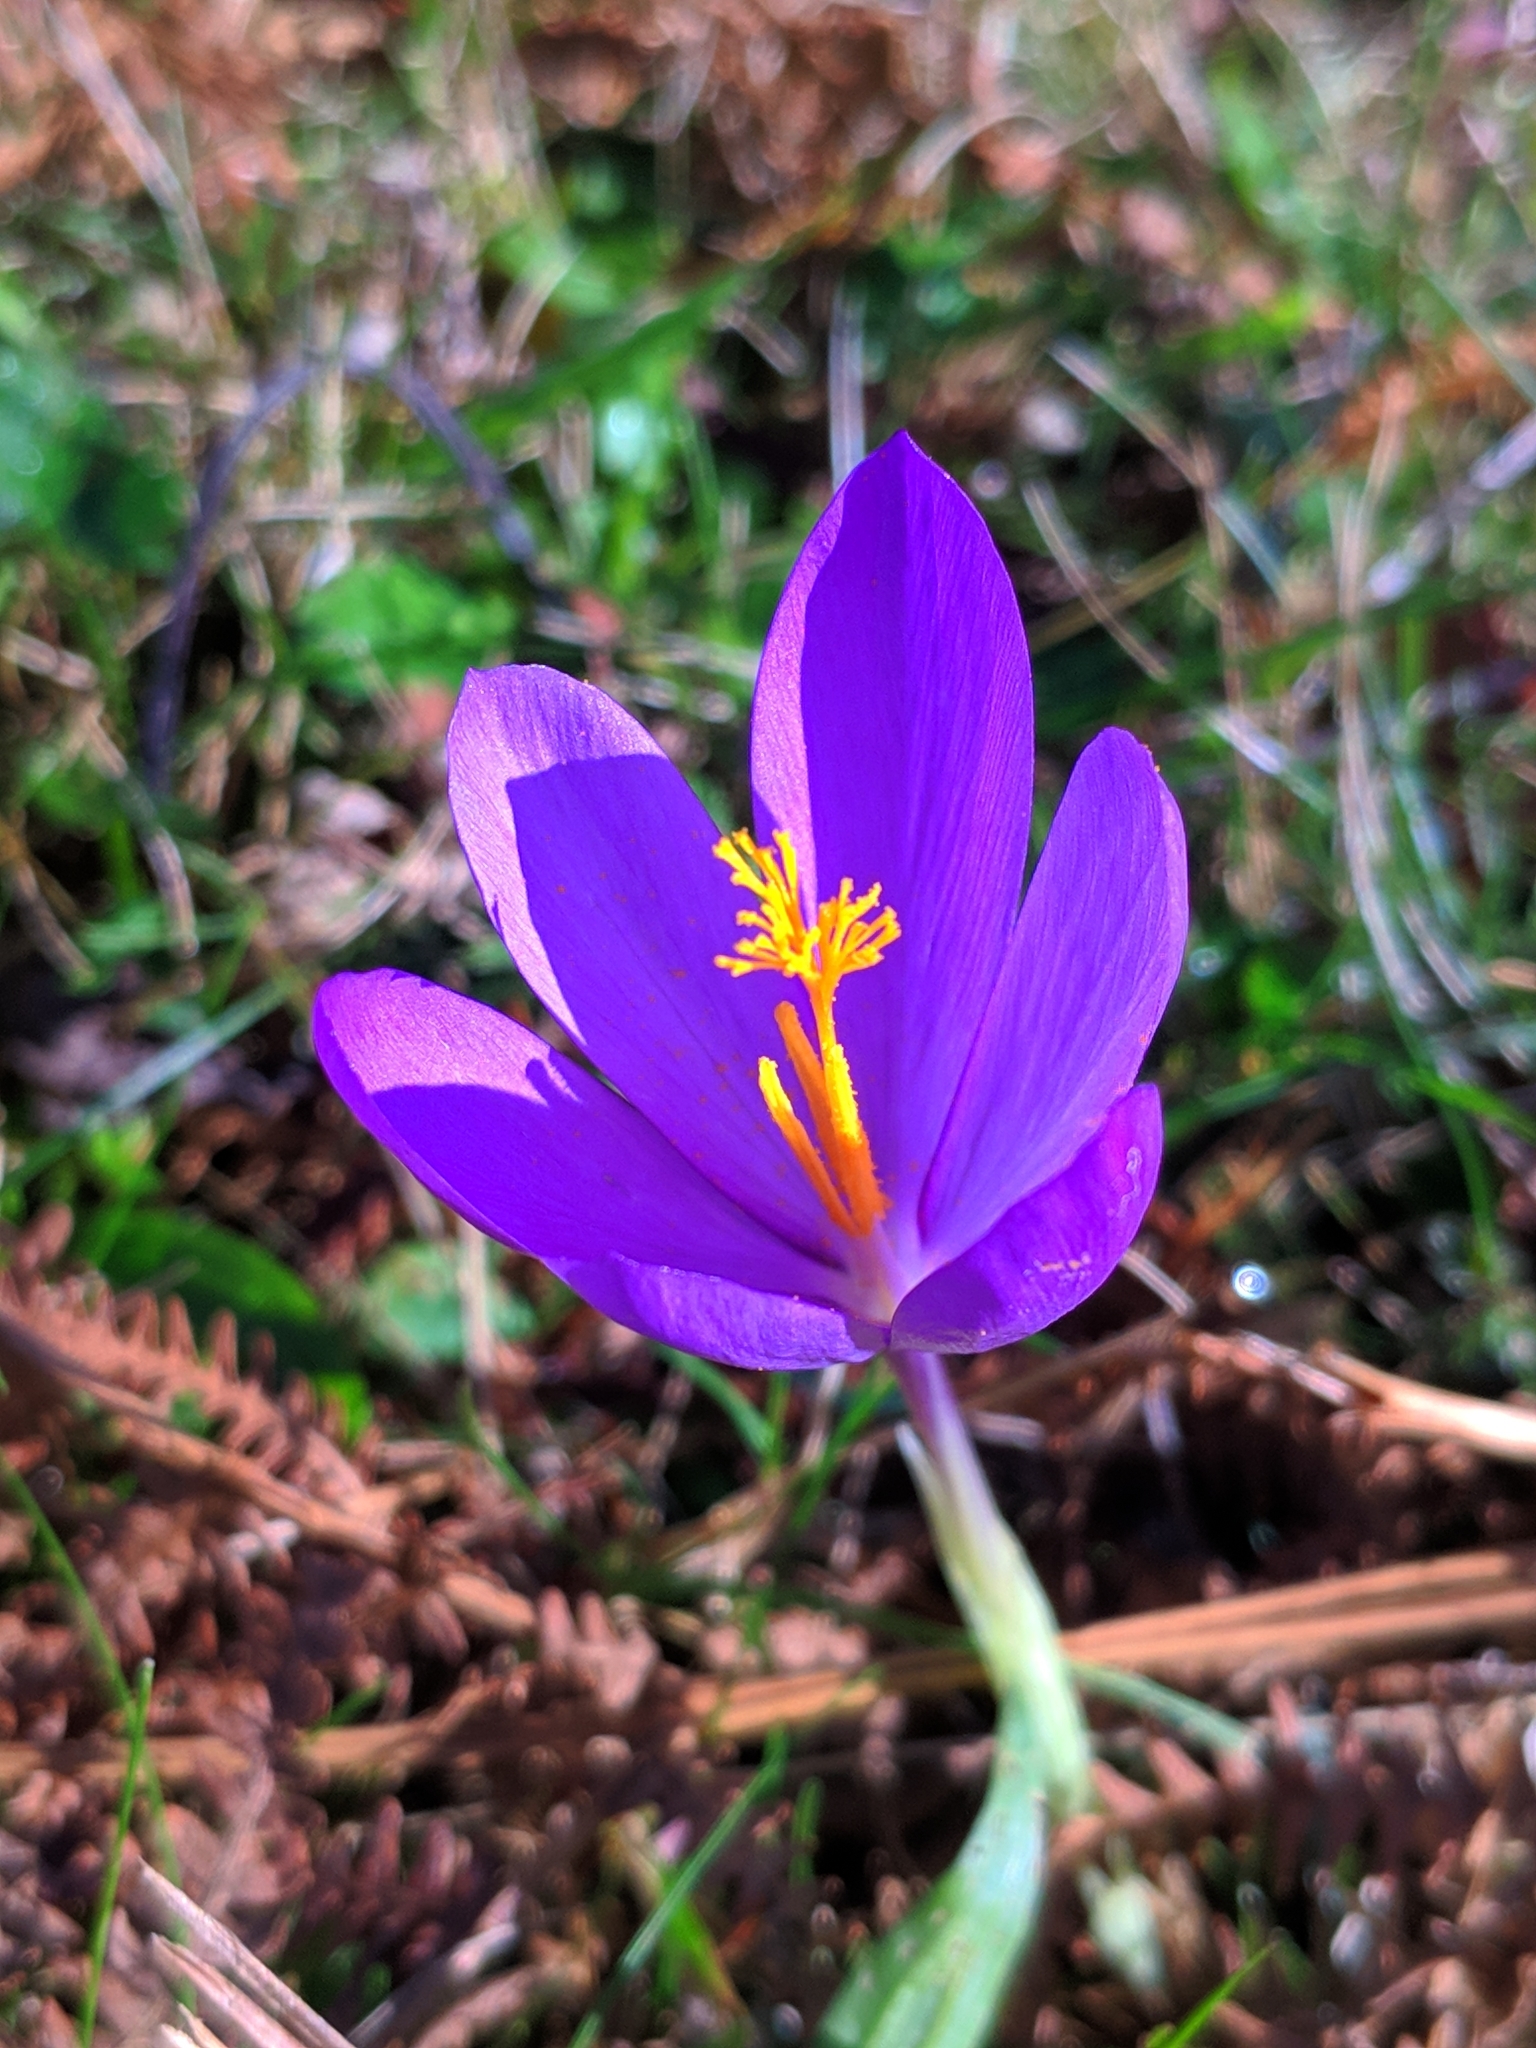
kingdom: Plantae
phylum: Tracheophyta
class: Liliopsida
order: Asparagales
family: Iridaceae
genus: Crocus
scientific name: Crocus nudiflorus
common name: Autumn crocus
